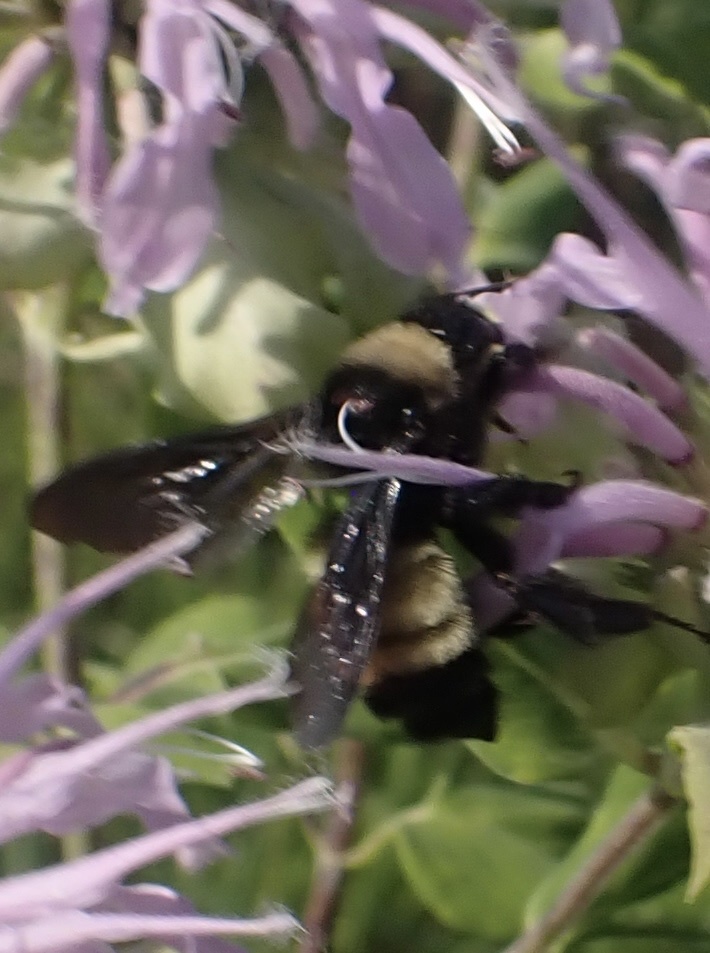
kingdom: Animalia
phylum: Arthropoda
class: Insecta
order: Hymenoptera
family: Apidae
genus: Bombus
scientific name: Bombus pensylvanicus
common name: Bumble bee
